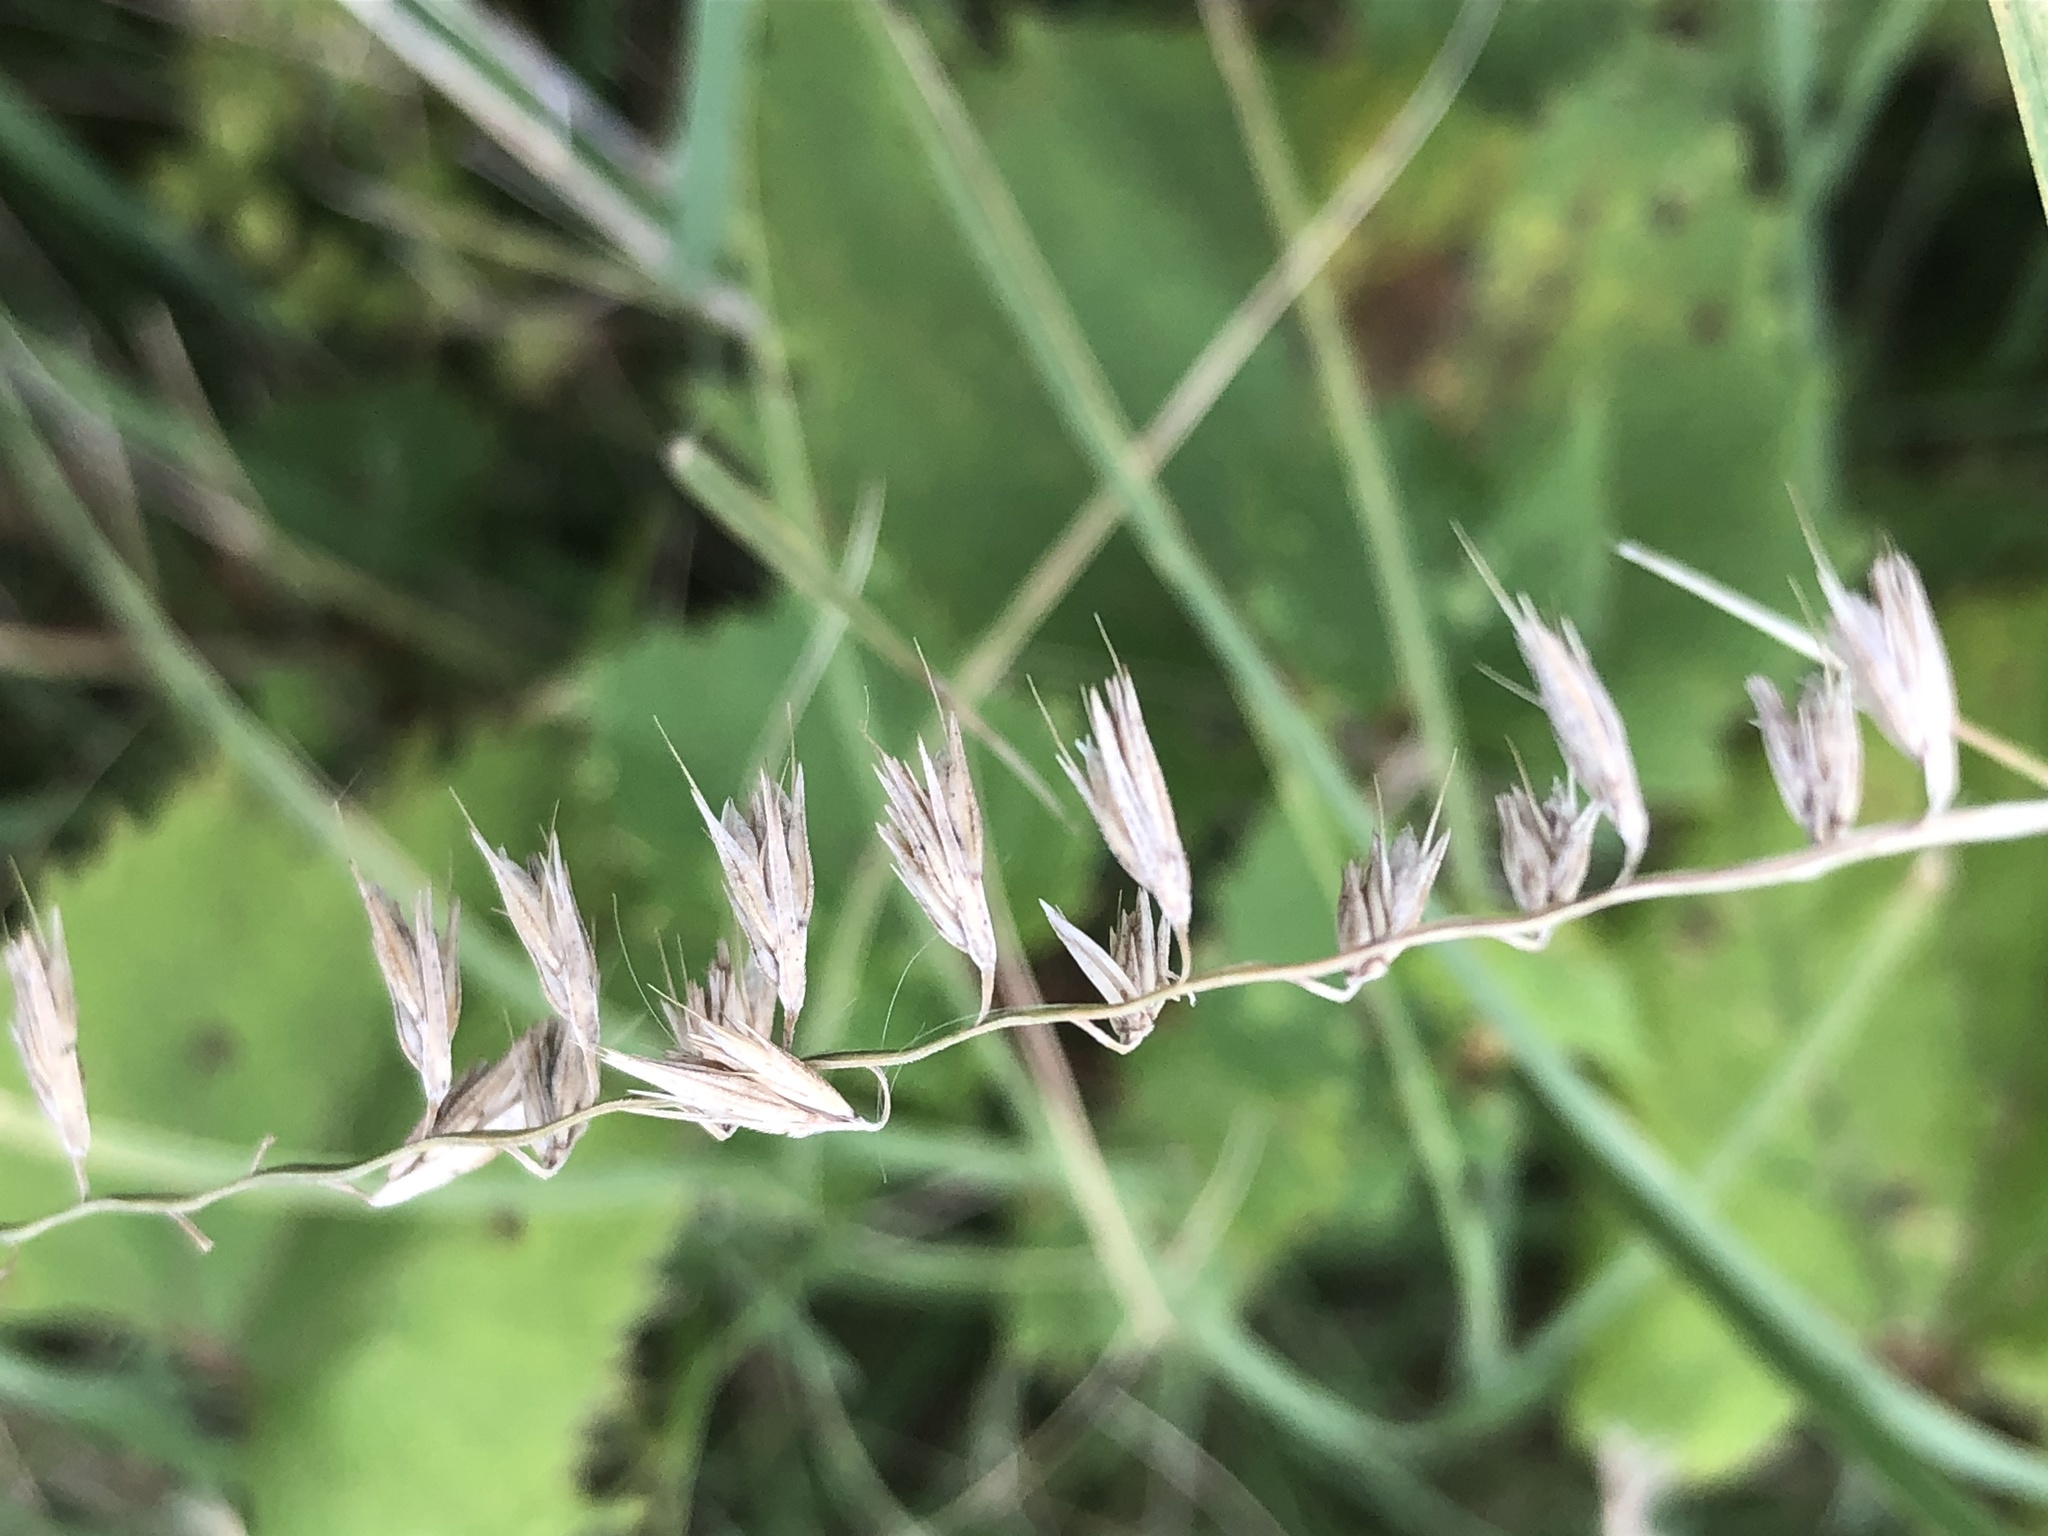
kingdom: Plantae
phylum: Tracheophyta
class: Liliopsida
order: Poales
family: Poaceae
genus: Bouteloua
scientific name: Bouteloua curtipendula
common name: Side-oats grama
